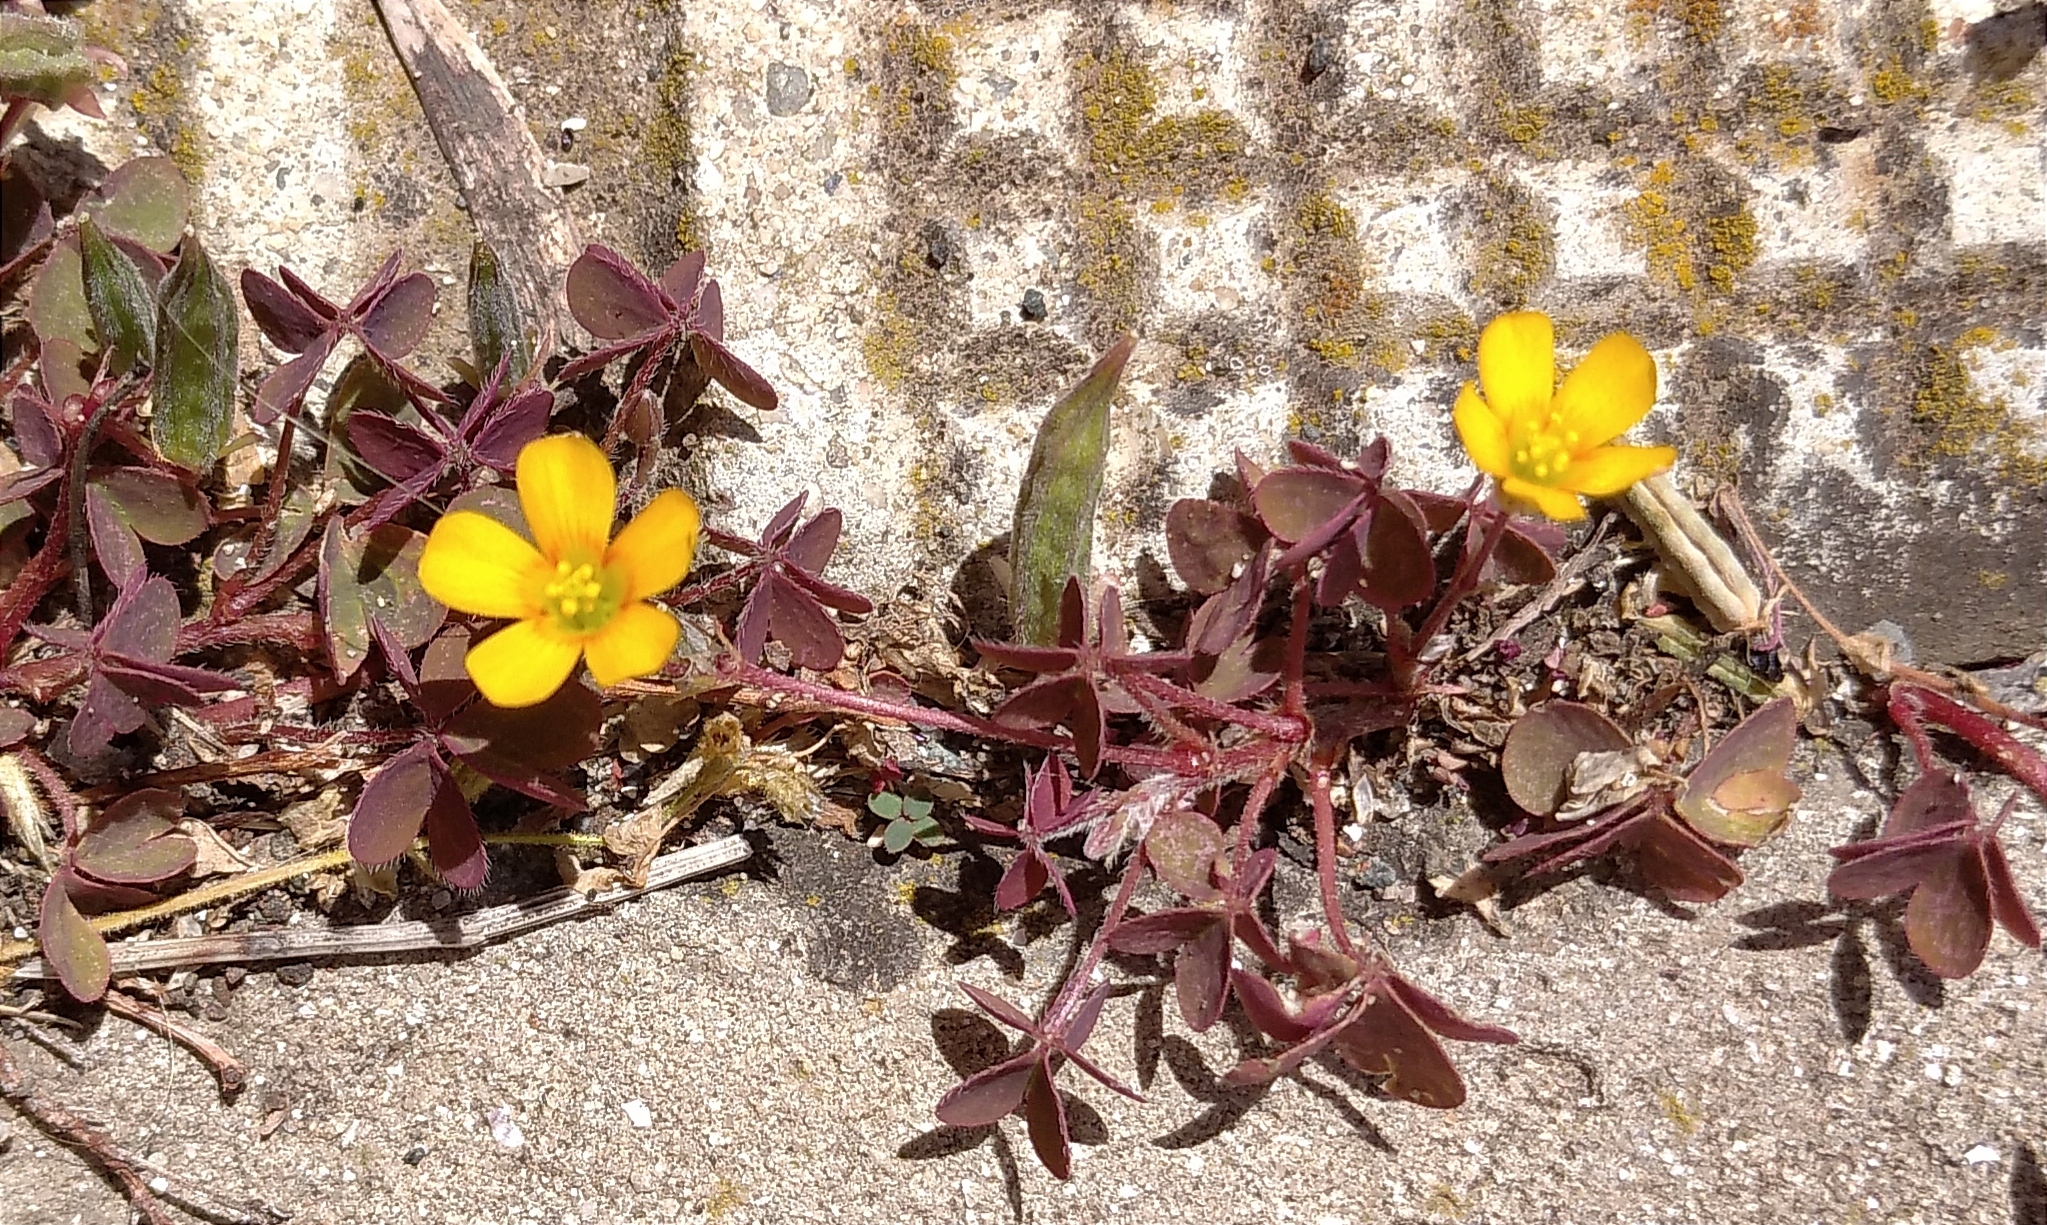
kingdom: Plantae
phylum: Tracheophyta
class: Magnoliopsida
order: Oxalidales
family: Oxalidaceae
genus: Oxalis
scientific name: Oxalis corniculata
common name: Procumbent yellow-sorrel
